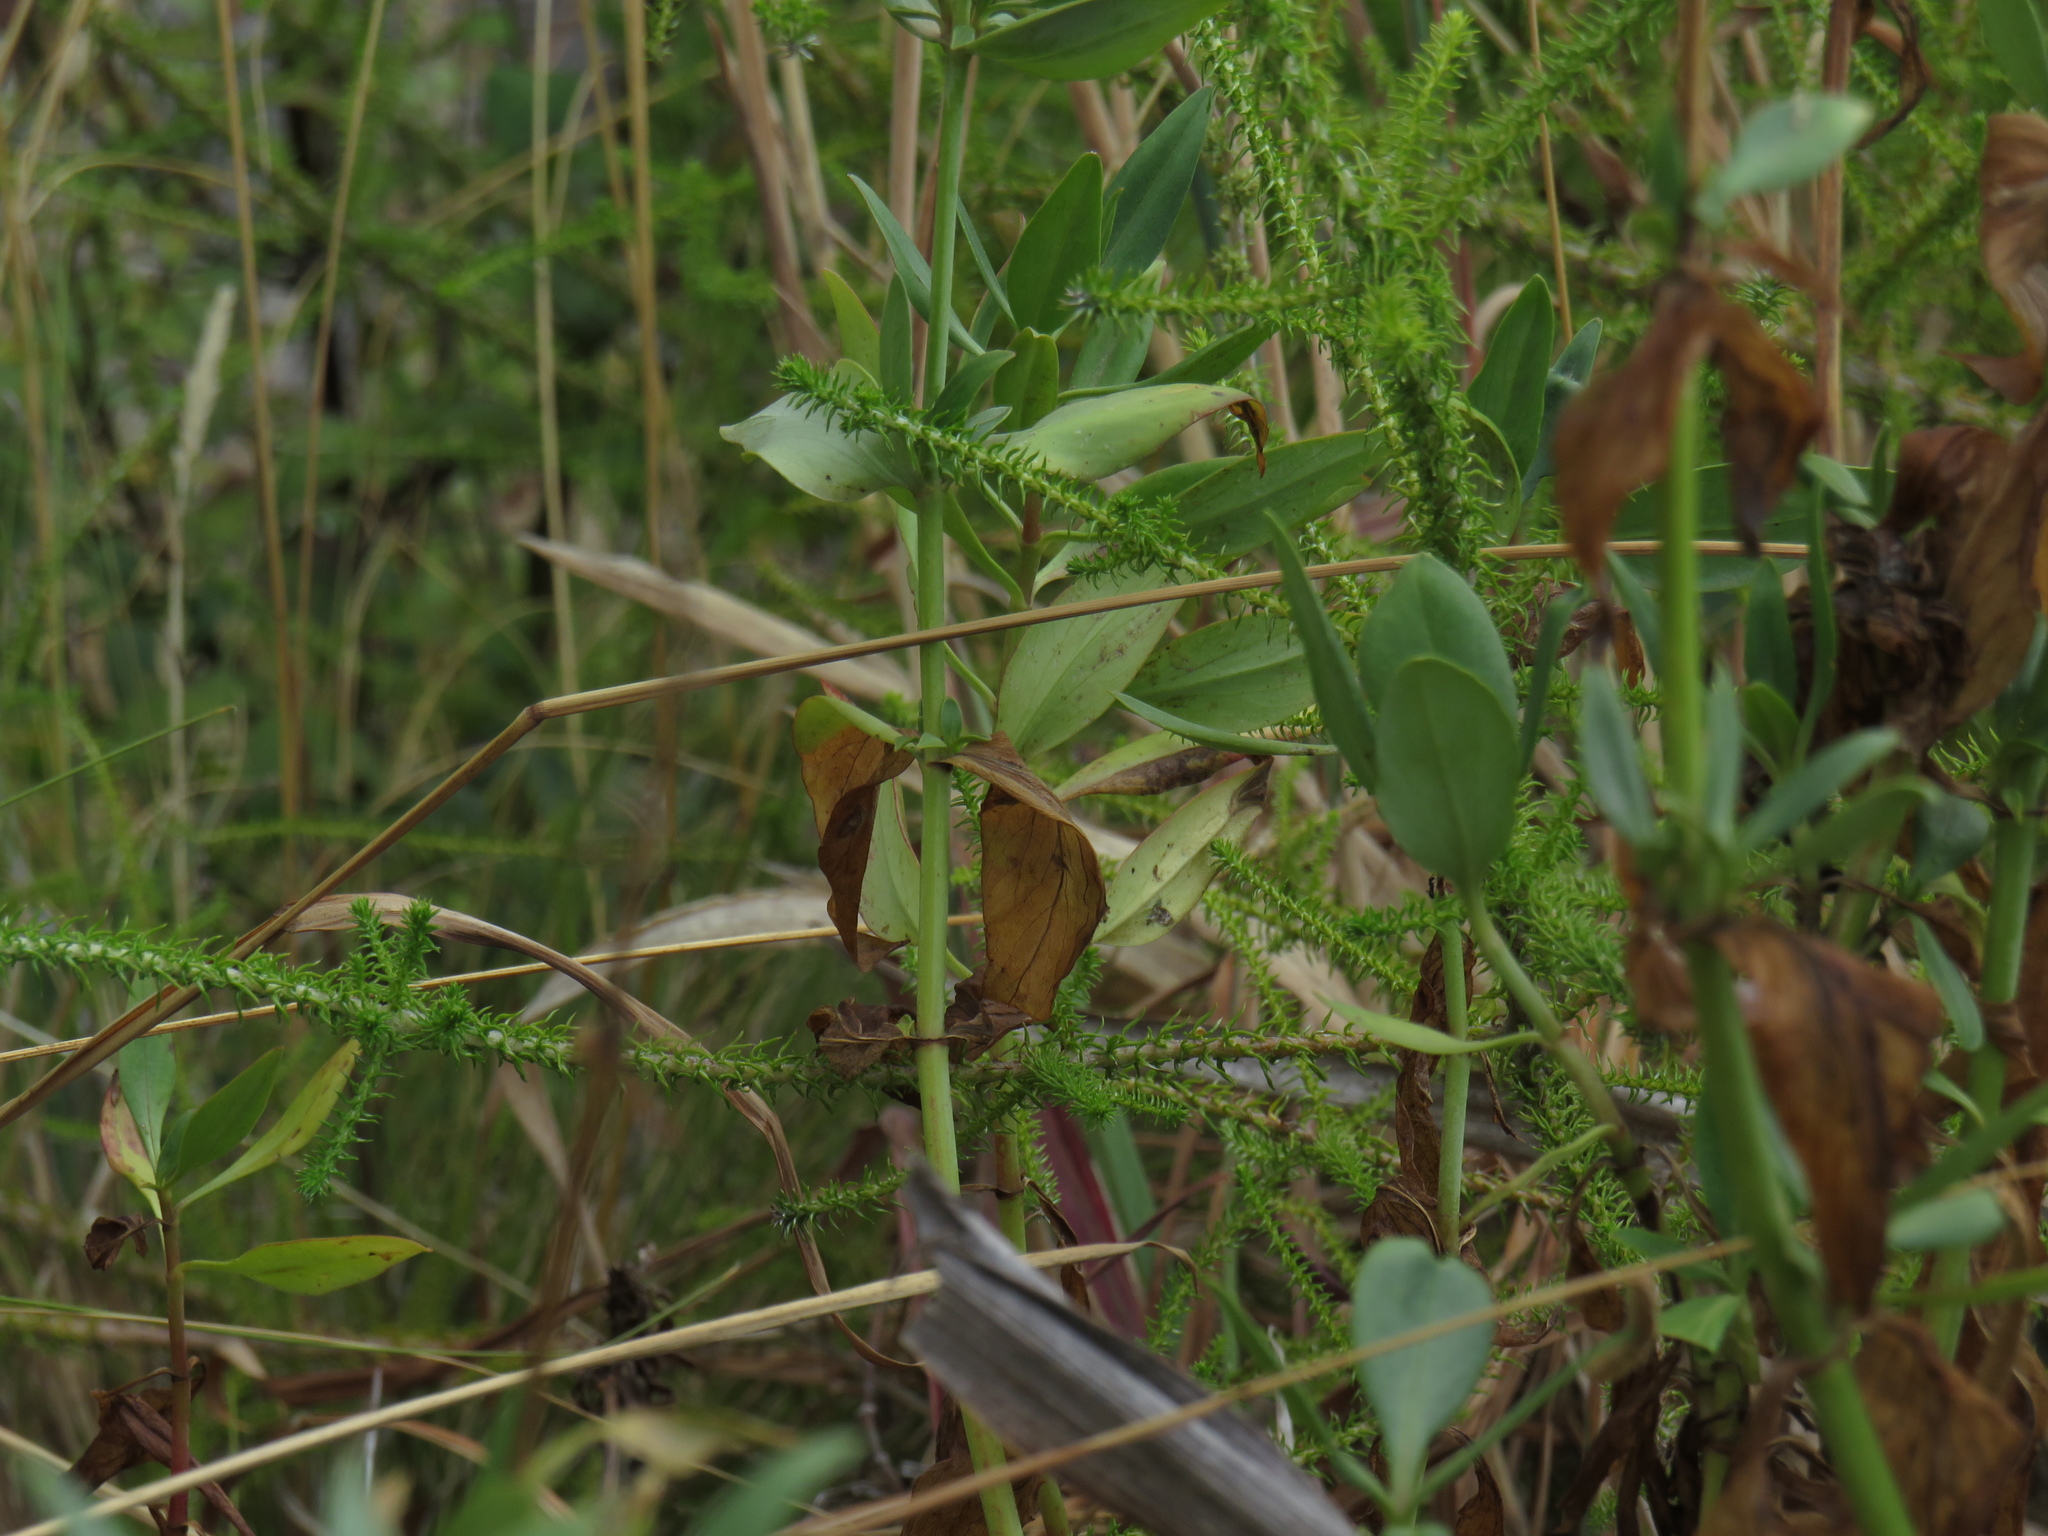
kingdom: Plantae
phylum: Tracheophyta
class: Magnoliopsida
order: Dipsacales
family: Caprifoliaceae
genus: Centranthus
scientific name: Centranthus ruber
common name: Red valerian
